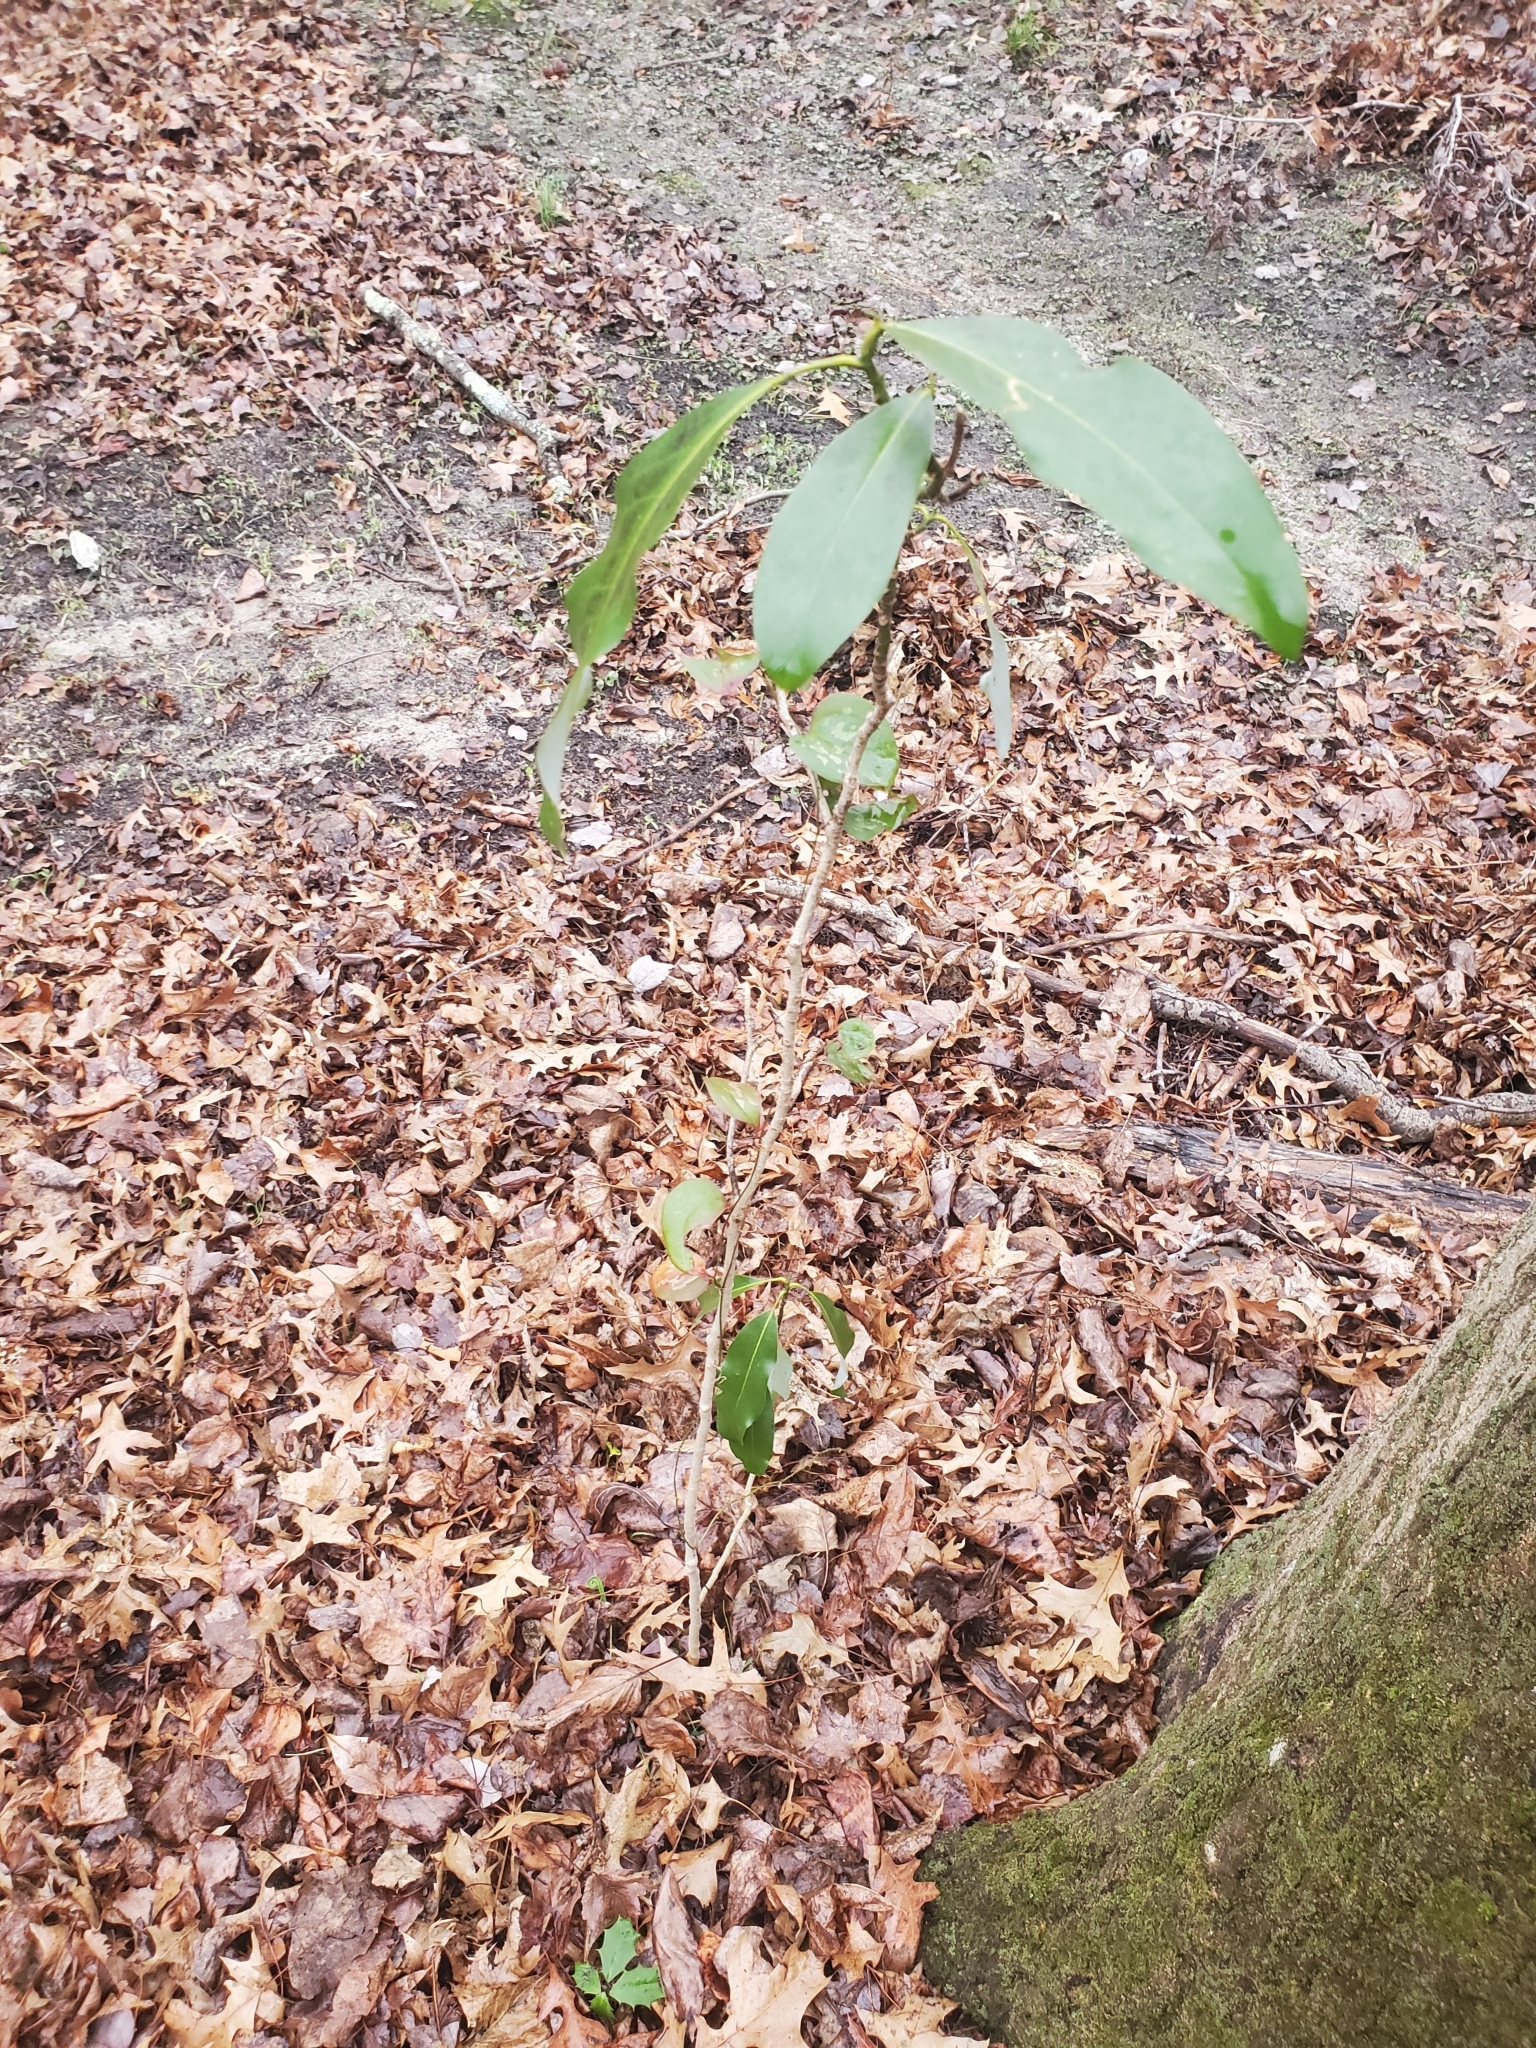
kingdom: Plantae
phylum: Tracheophyta
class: Magnoliopsida
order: Magnoliales
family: Magnoliaceae
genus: Magnolia
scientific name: Magnolia virginiana
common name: Swamp bay
